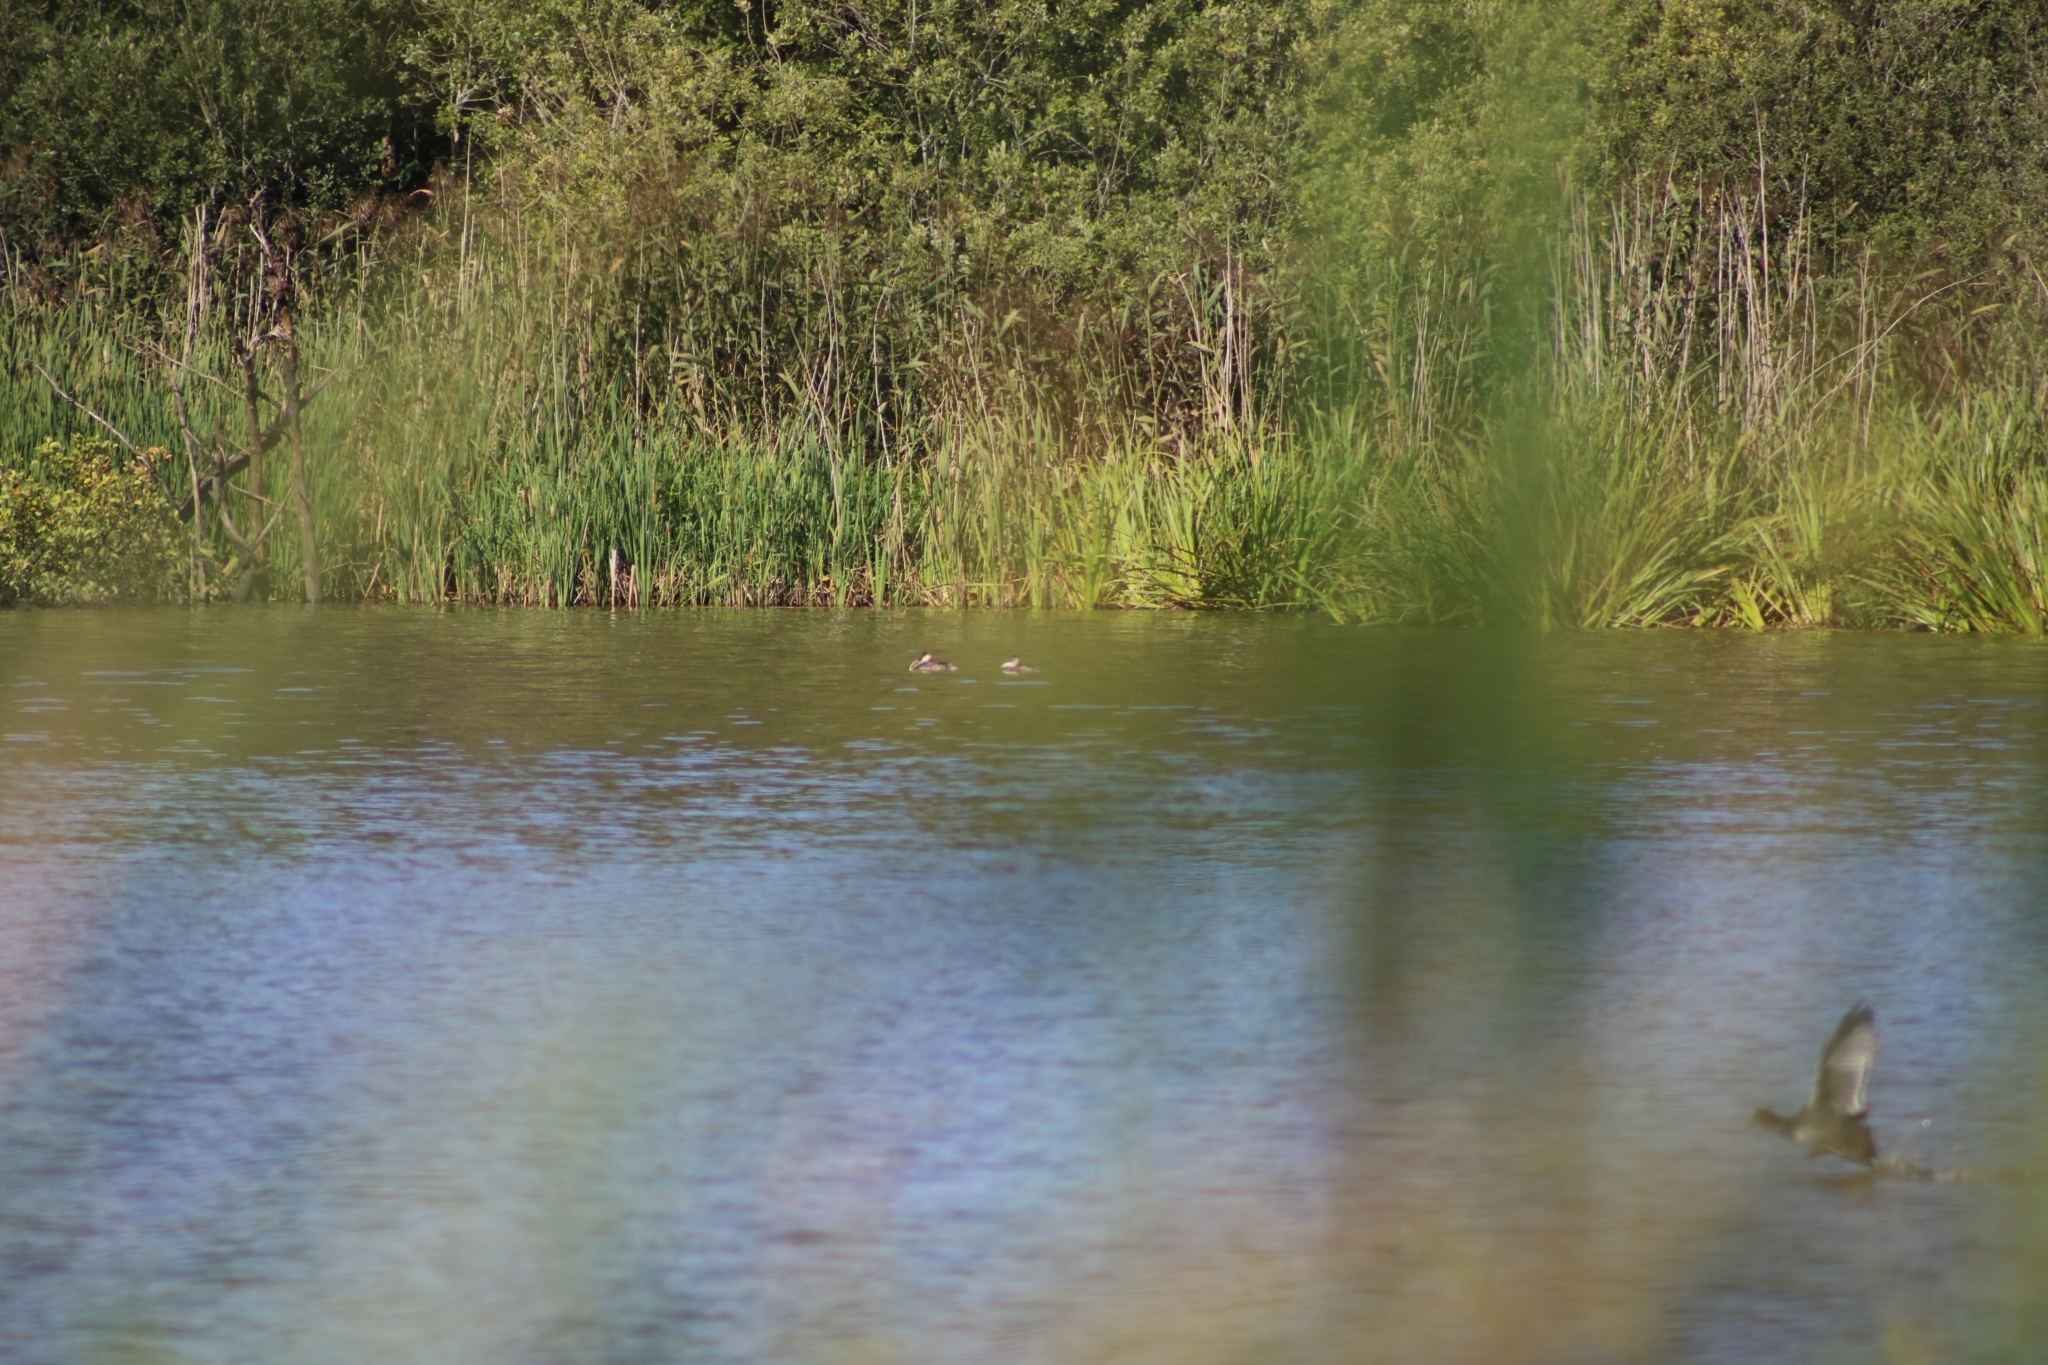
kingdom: Animalia
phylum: Chordata
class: Aves
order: Podicipediformes
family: Podicipedidae
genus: Podiceps
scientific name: Podiceps cristatus
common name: Great crested grebe
